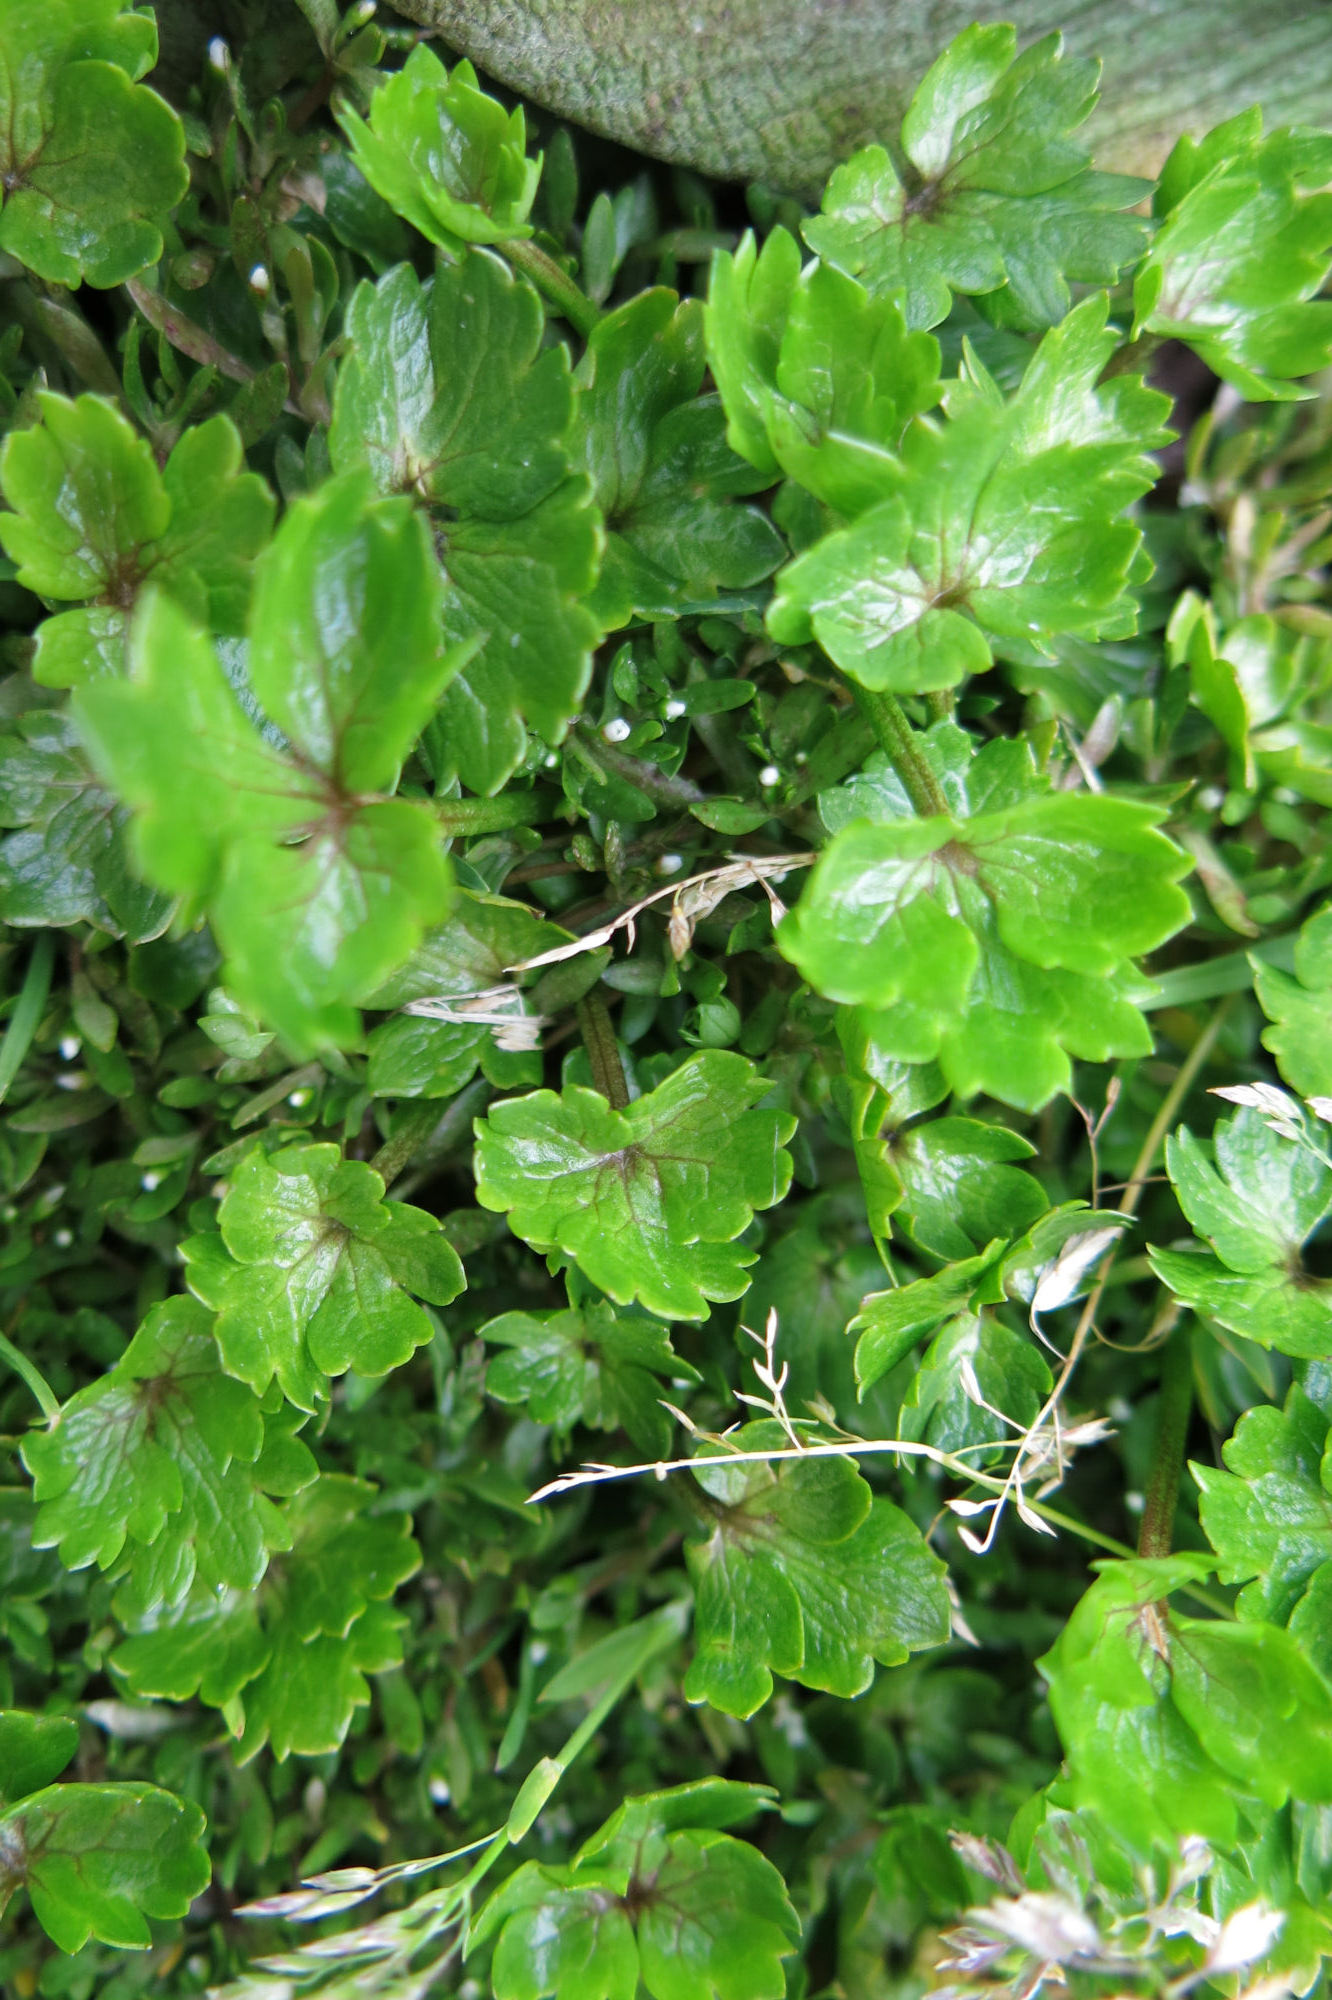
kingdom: Plantae
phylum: Tracheophyta
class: Magnoliopsida
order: Ranunculales
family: Ranunculaceae
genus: Ranunculus
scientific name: Ranunculus crassipes
